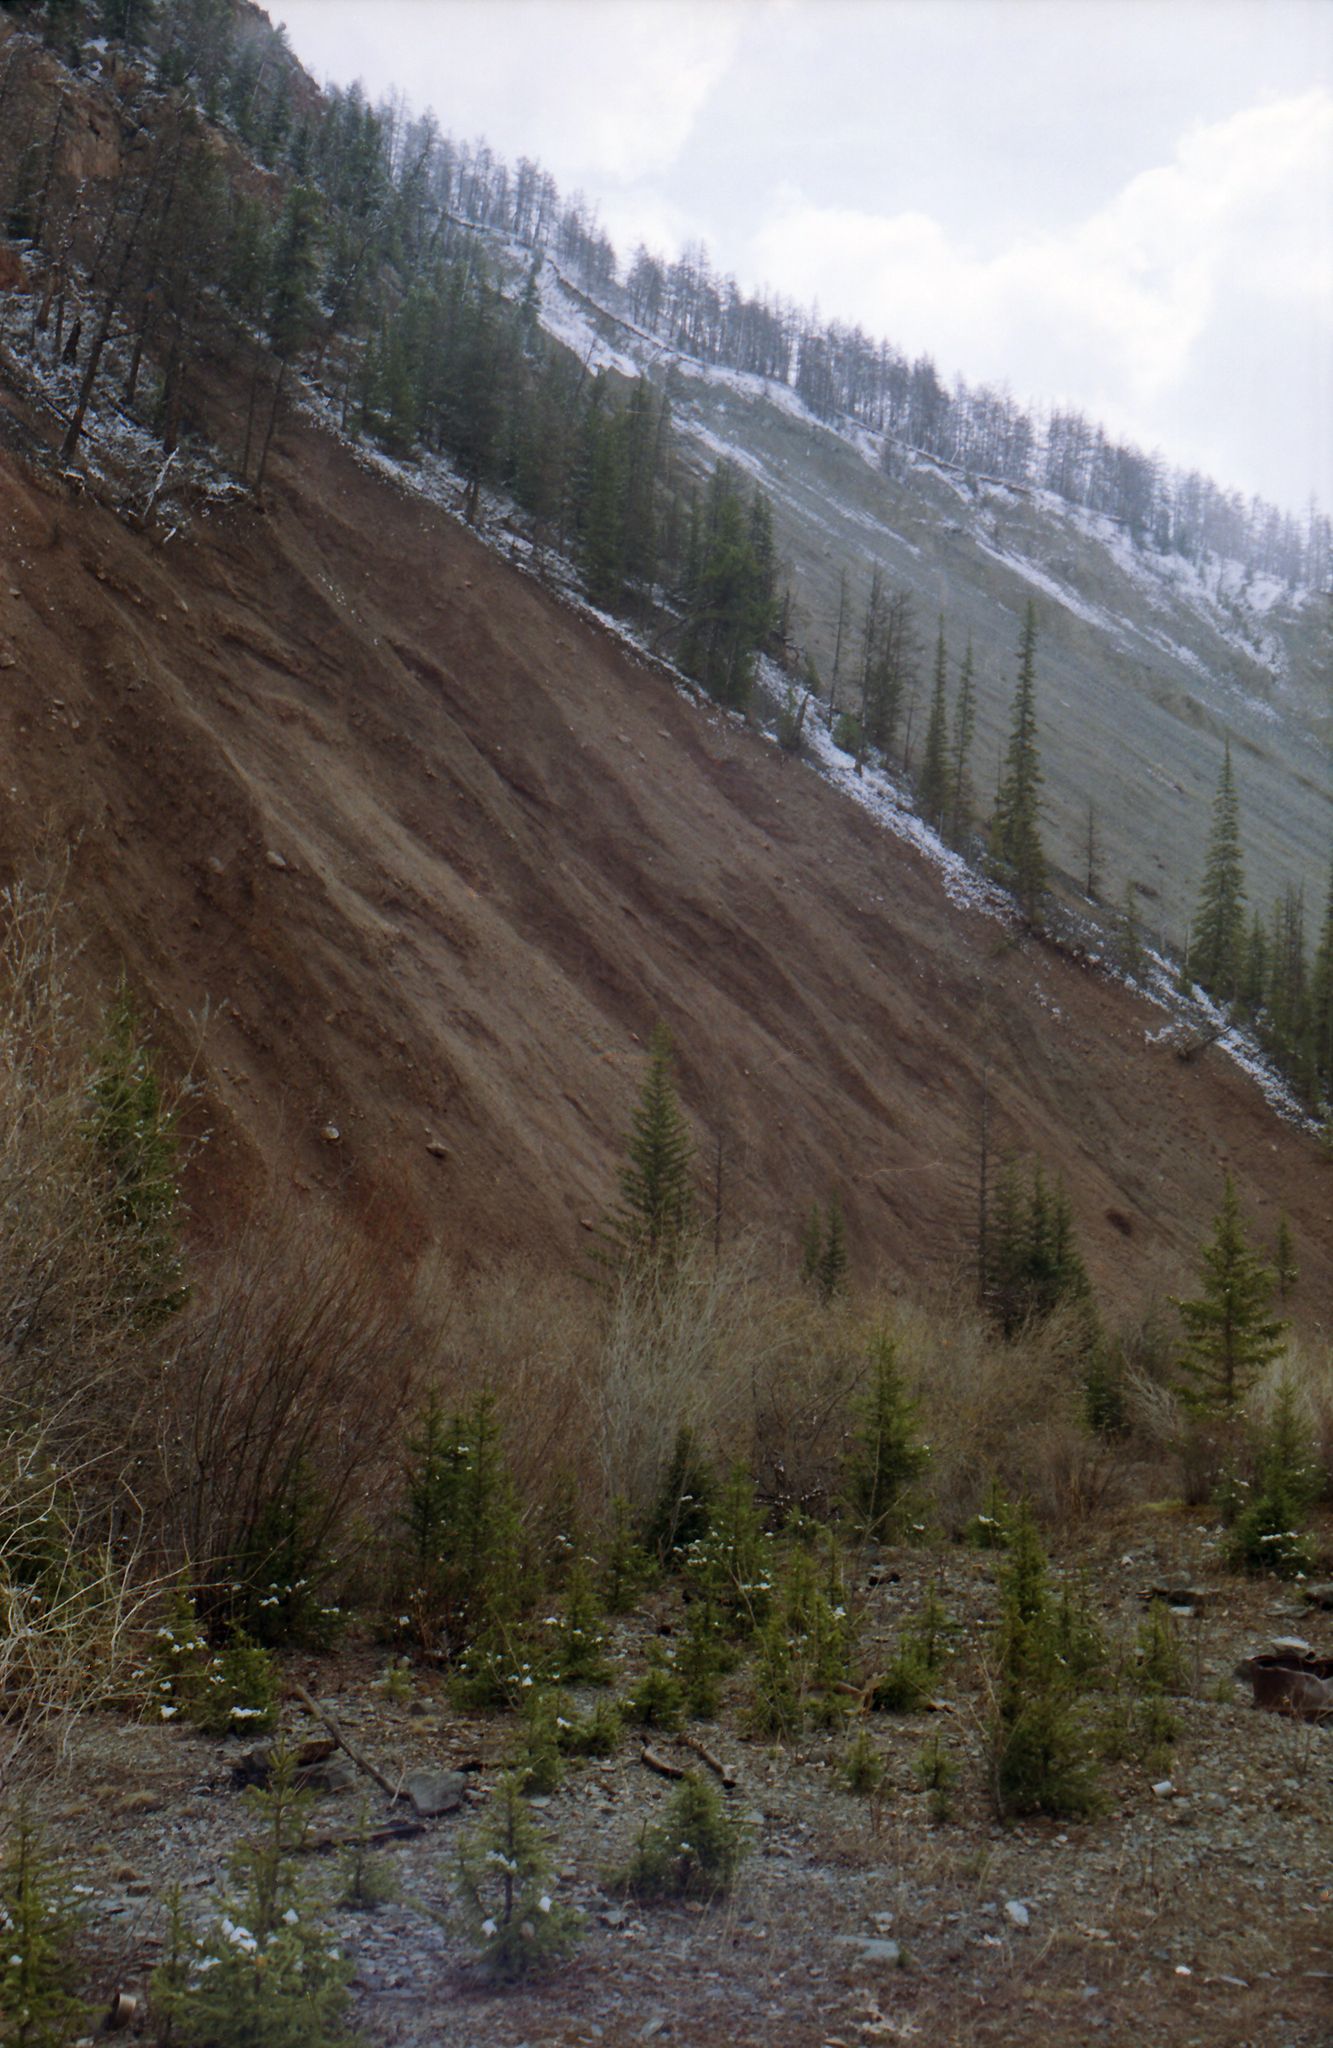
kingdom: Plantae
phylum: Tracheophyta
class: Pinopsida
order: Pinales
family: Pinaceae
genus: Picea
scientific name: Picea obovata
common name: Siberian spruce
